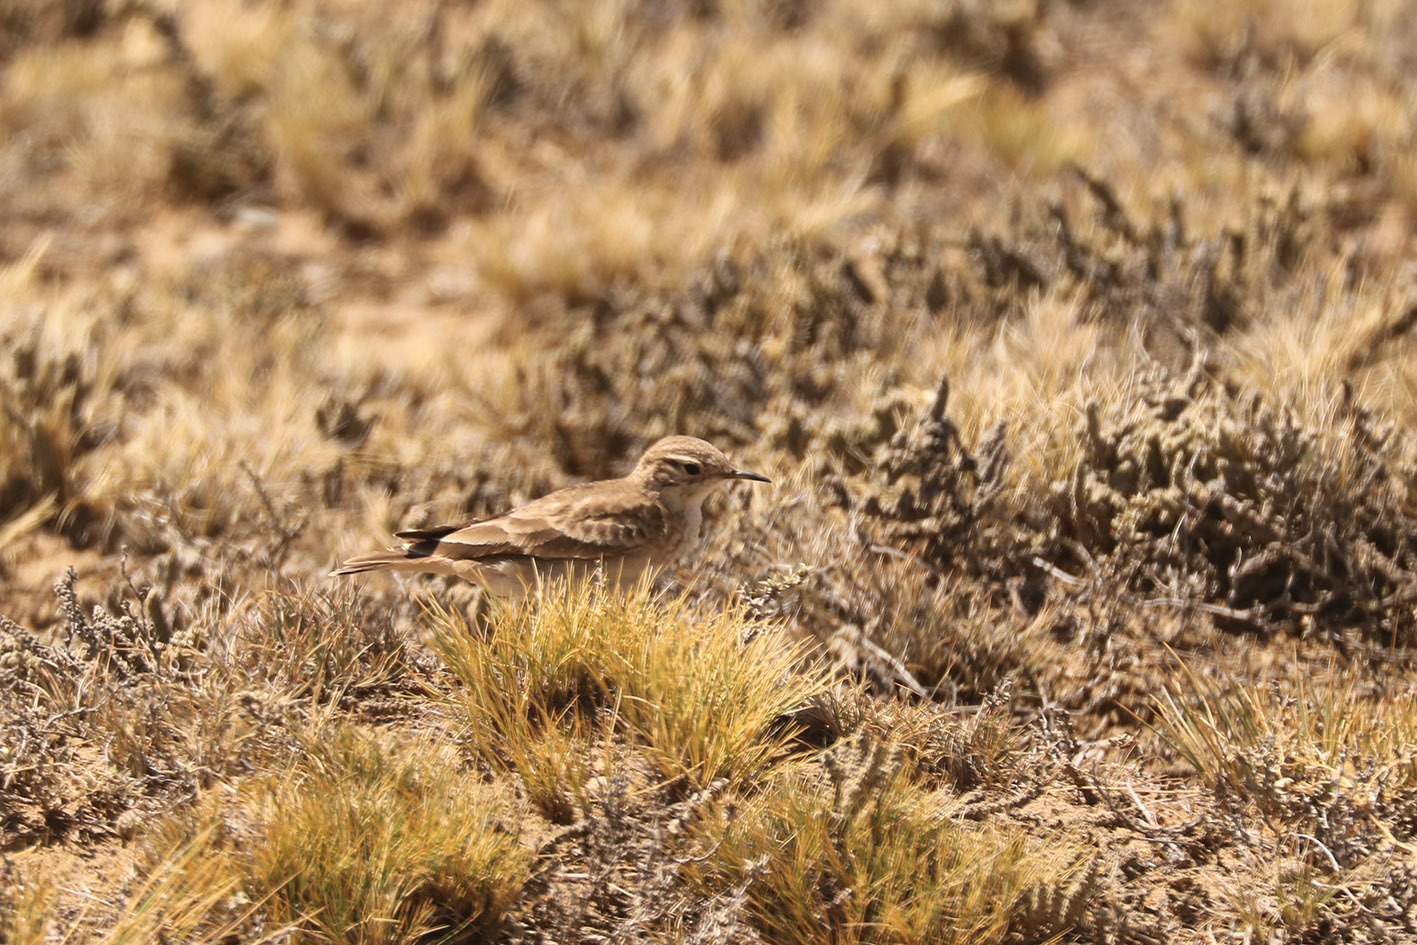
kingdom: Animalia
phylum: Chordata
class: Aves
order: Passeriformes
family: Furnariidae
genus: Geositta
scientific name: Geositta cunicularia
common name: Common miner
